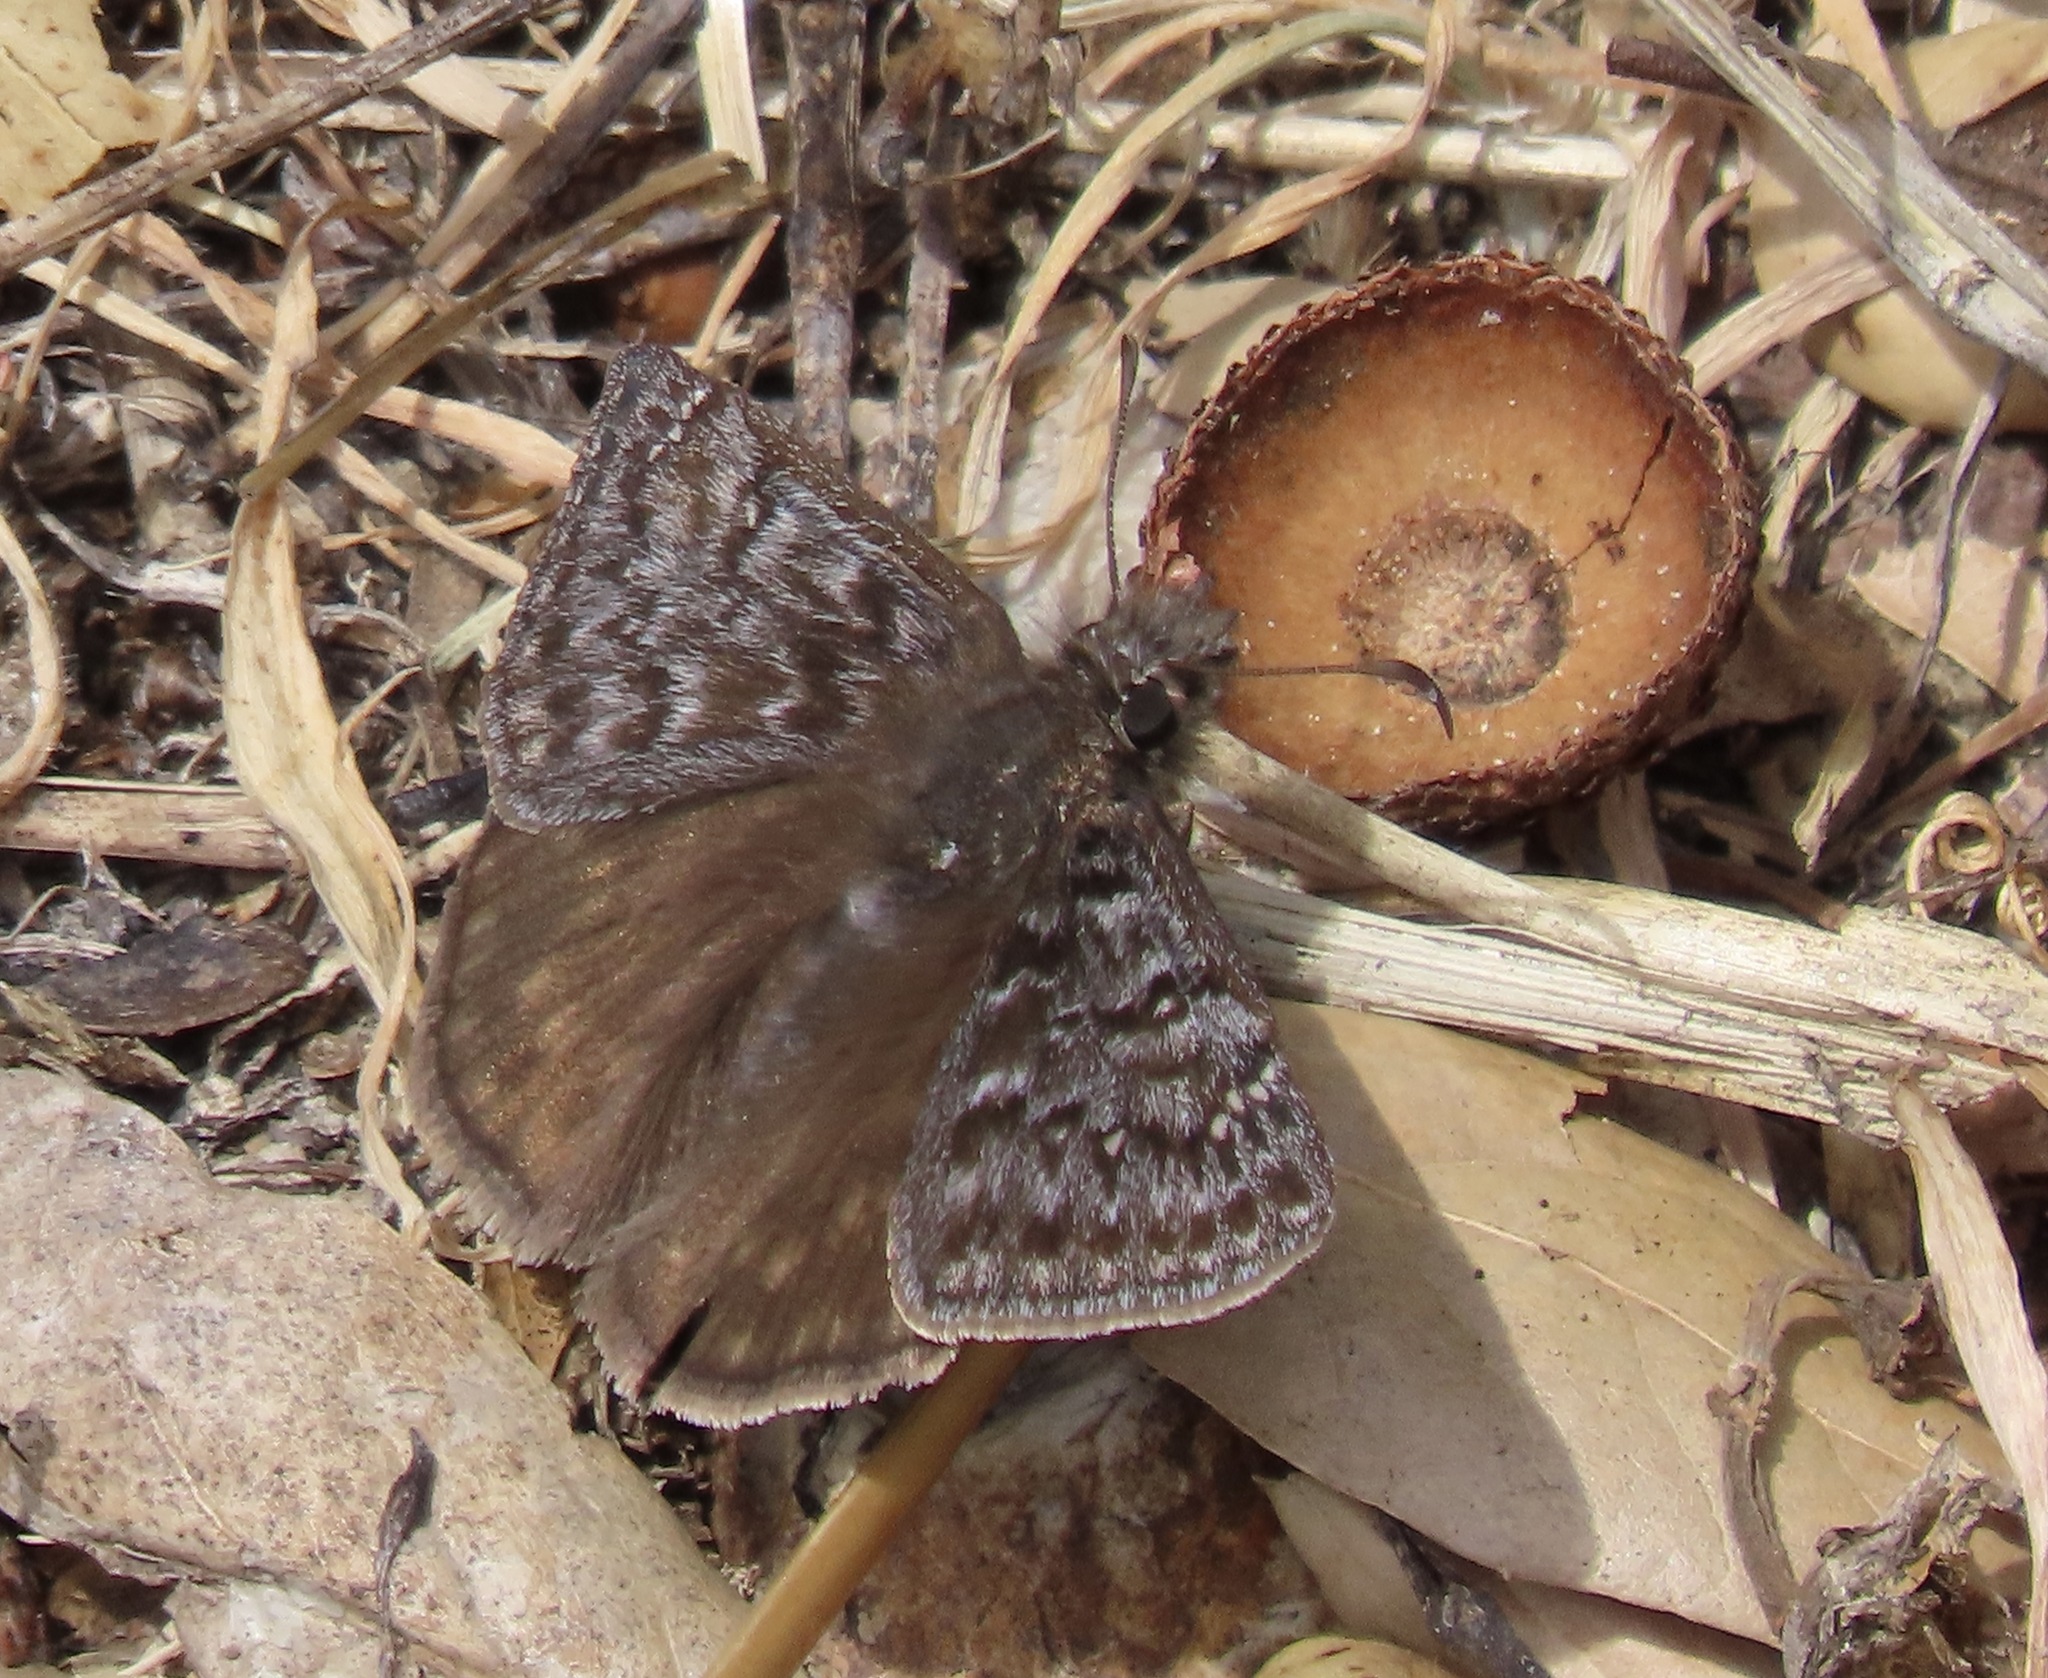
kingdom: Animalia
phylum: Arthropoda
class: Insecta
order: Lepidoptera
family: Hesperiidae
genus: Erynnis
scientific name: Erynnis propertius
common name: Propertius duskywing
